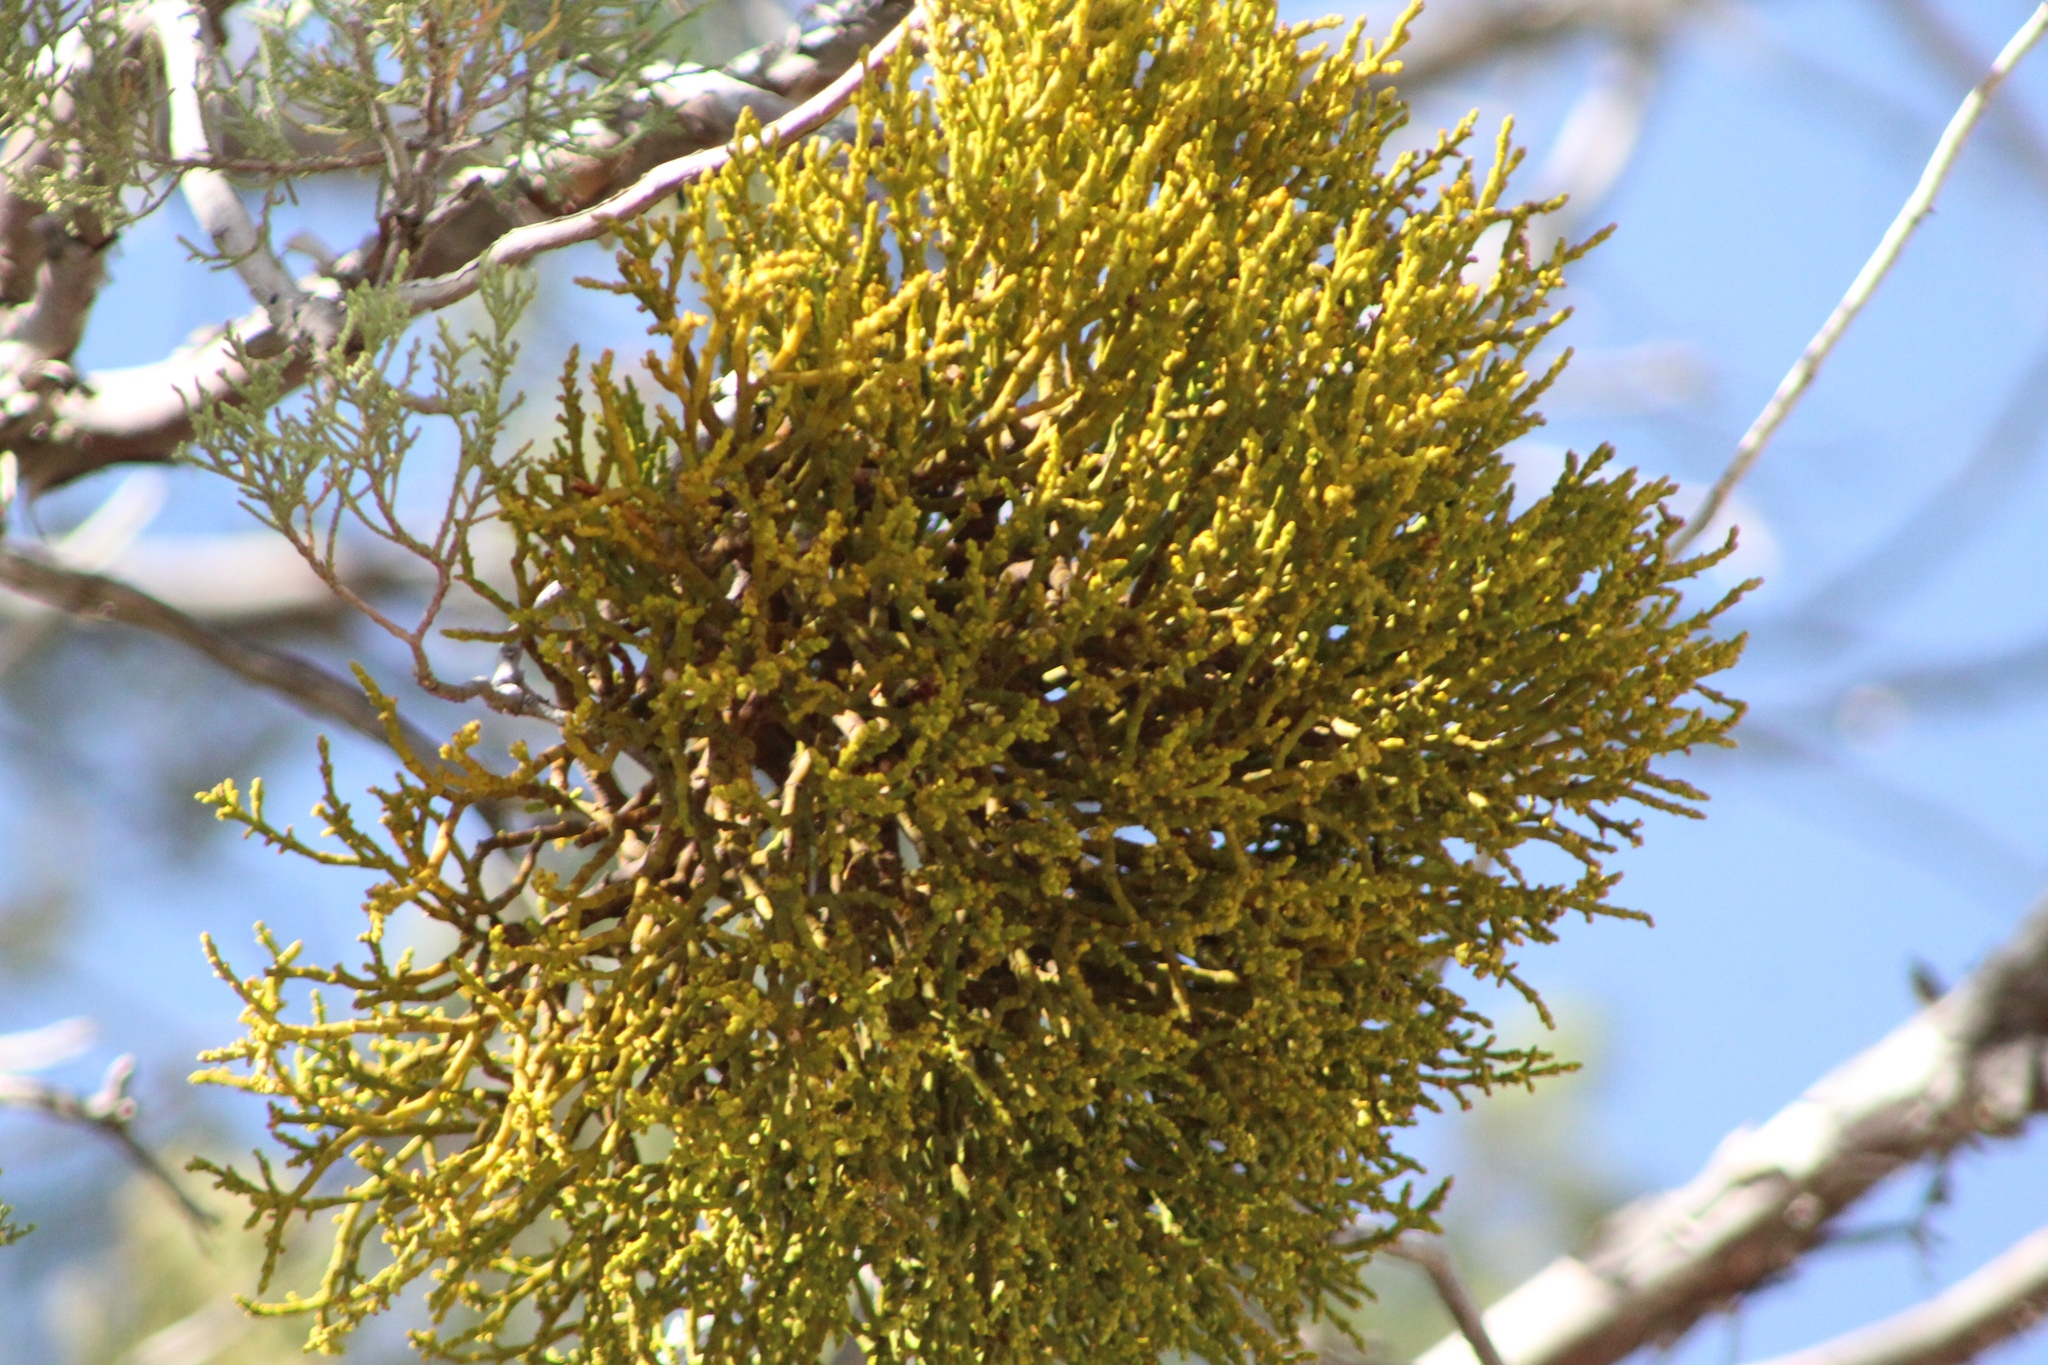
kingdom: Plantae
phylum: Tracheophyta
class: Magnoliopsida
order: Santalales
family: Viscaceae
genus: Phoradendron
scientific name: Phoradendron juniperinum
